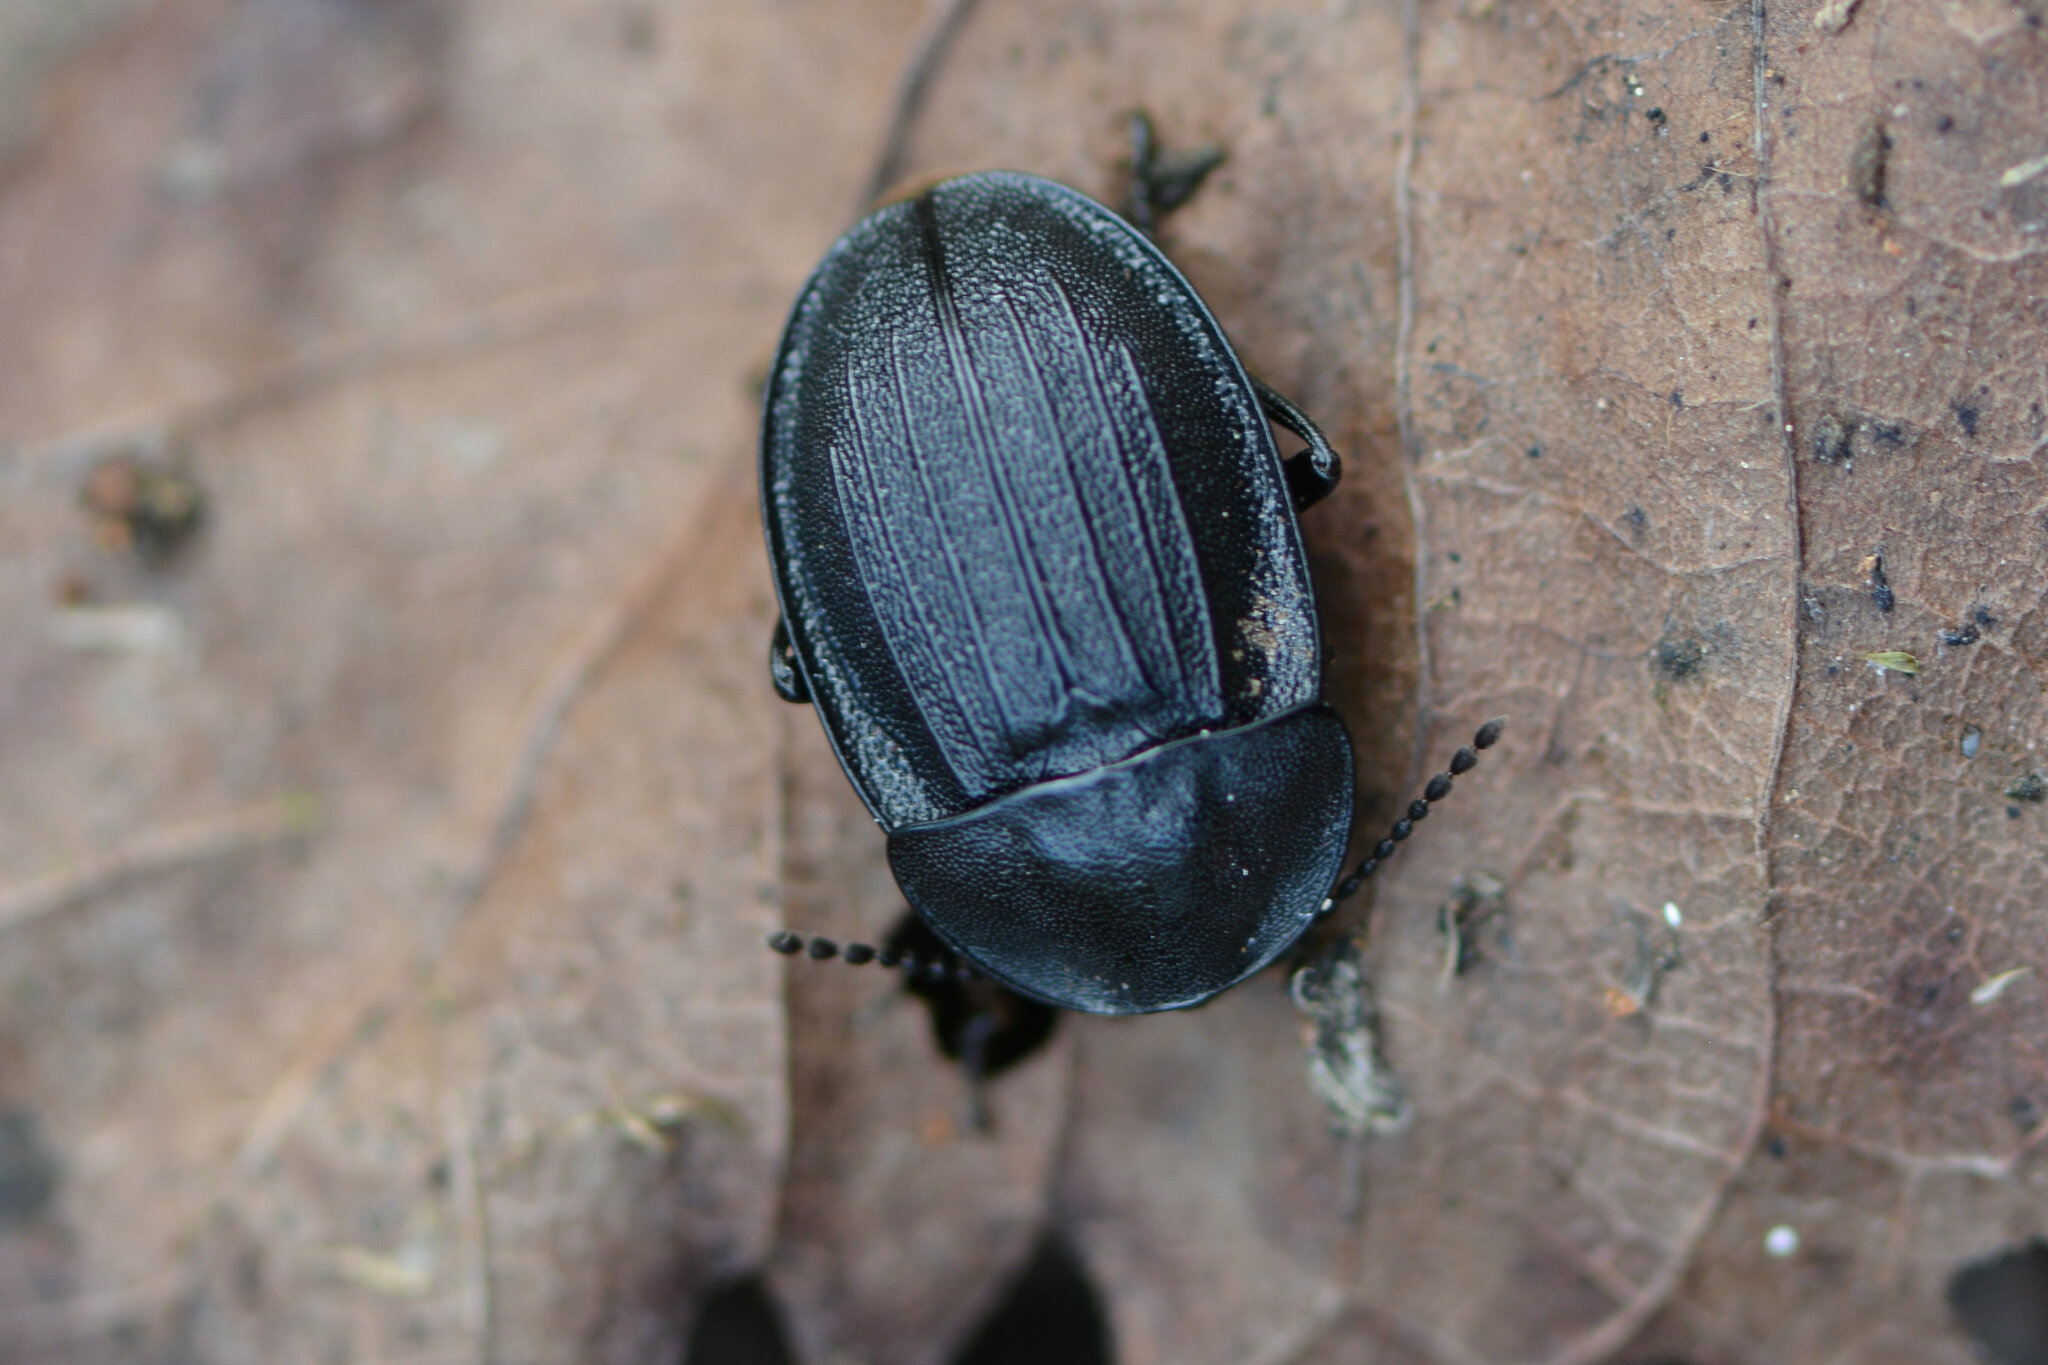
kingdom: Animalia
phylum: Arthropoda
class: Insecta
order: Coleoptera
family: Staphylinidae
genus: Silpha
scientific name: Silpha atrata
